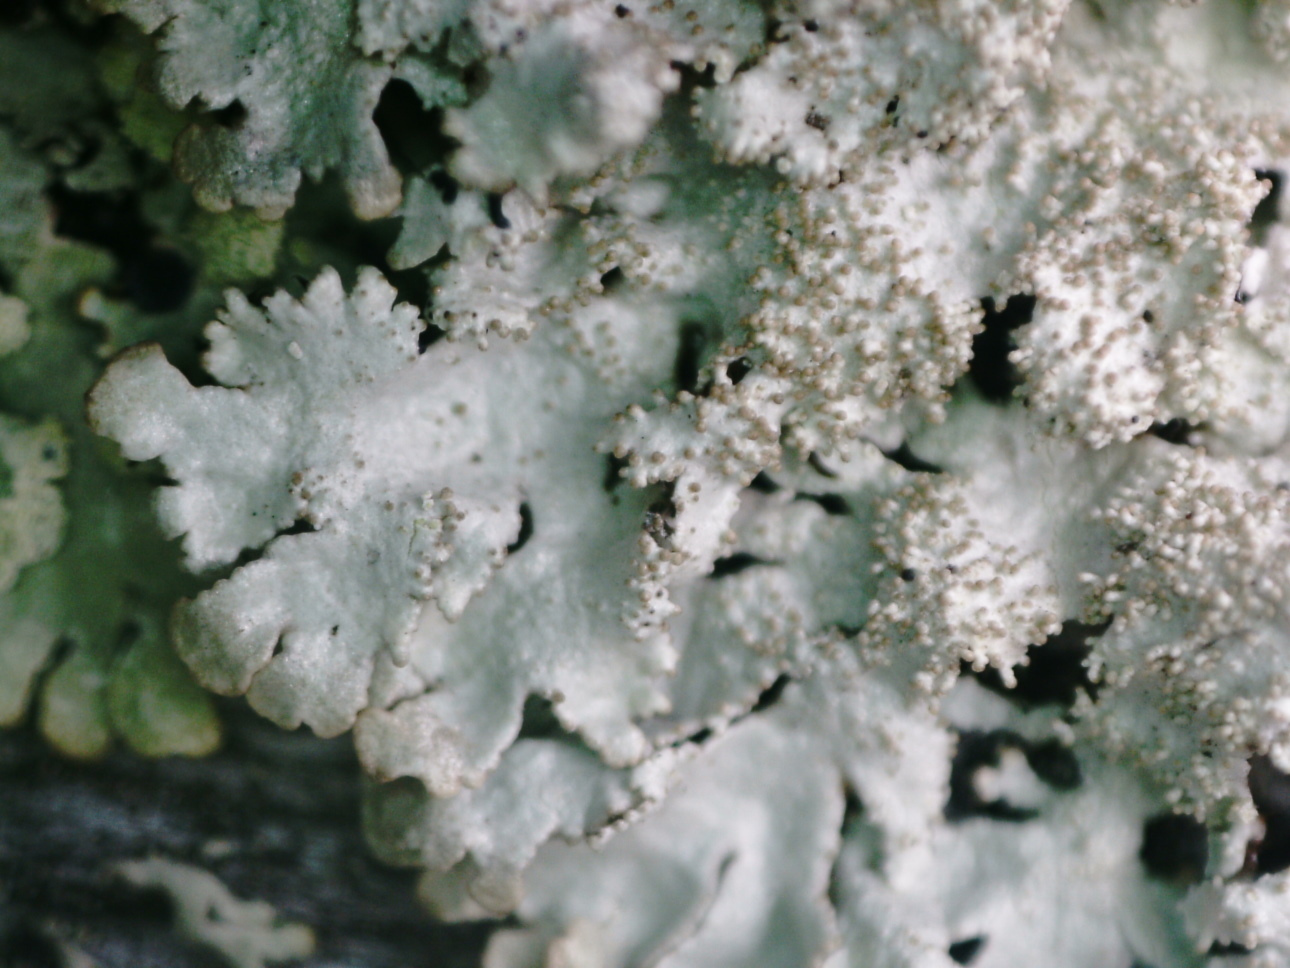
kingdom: Fungi
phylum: Ascomycota
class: Lecanoromycetes
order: Lecanorales
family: Parmeliaceae
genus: Imshaugia
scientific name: Imshaugia aleurites
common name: Salted starburst lichen
